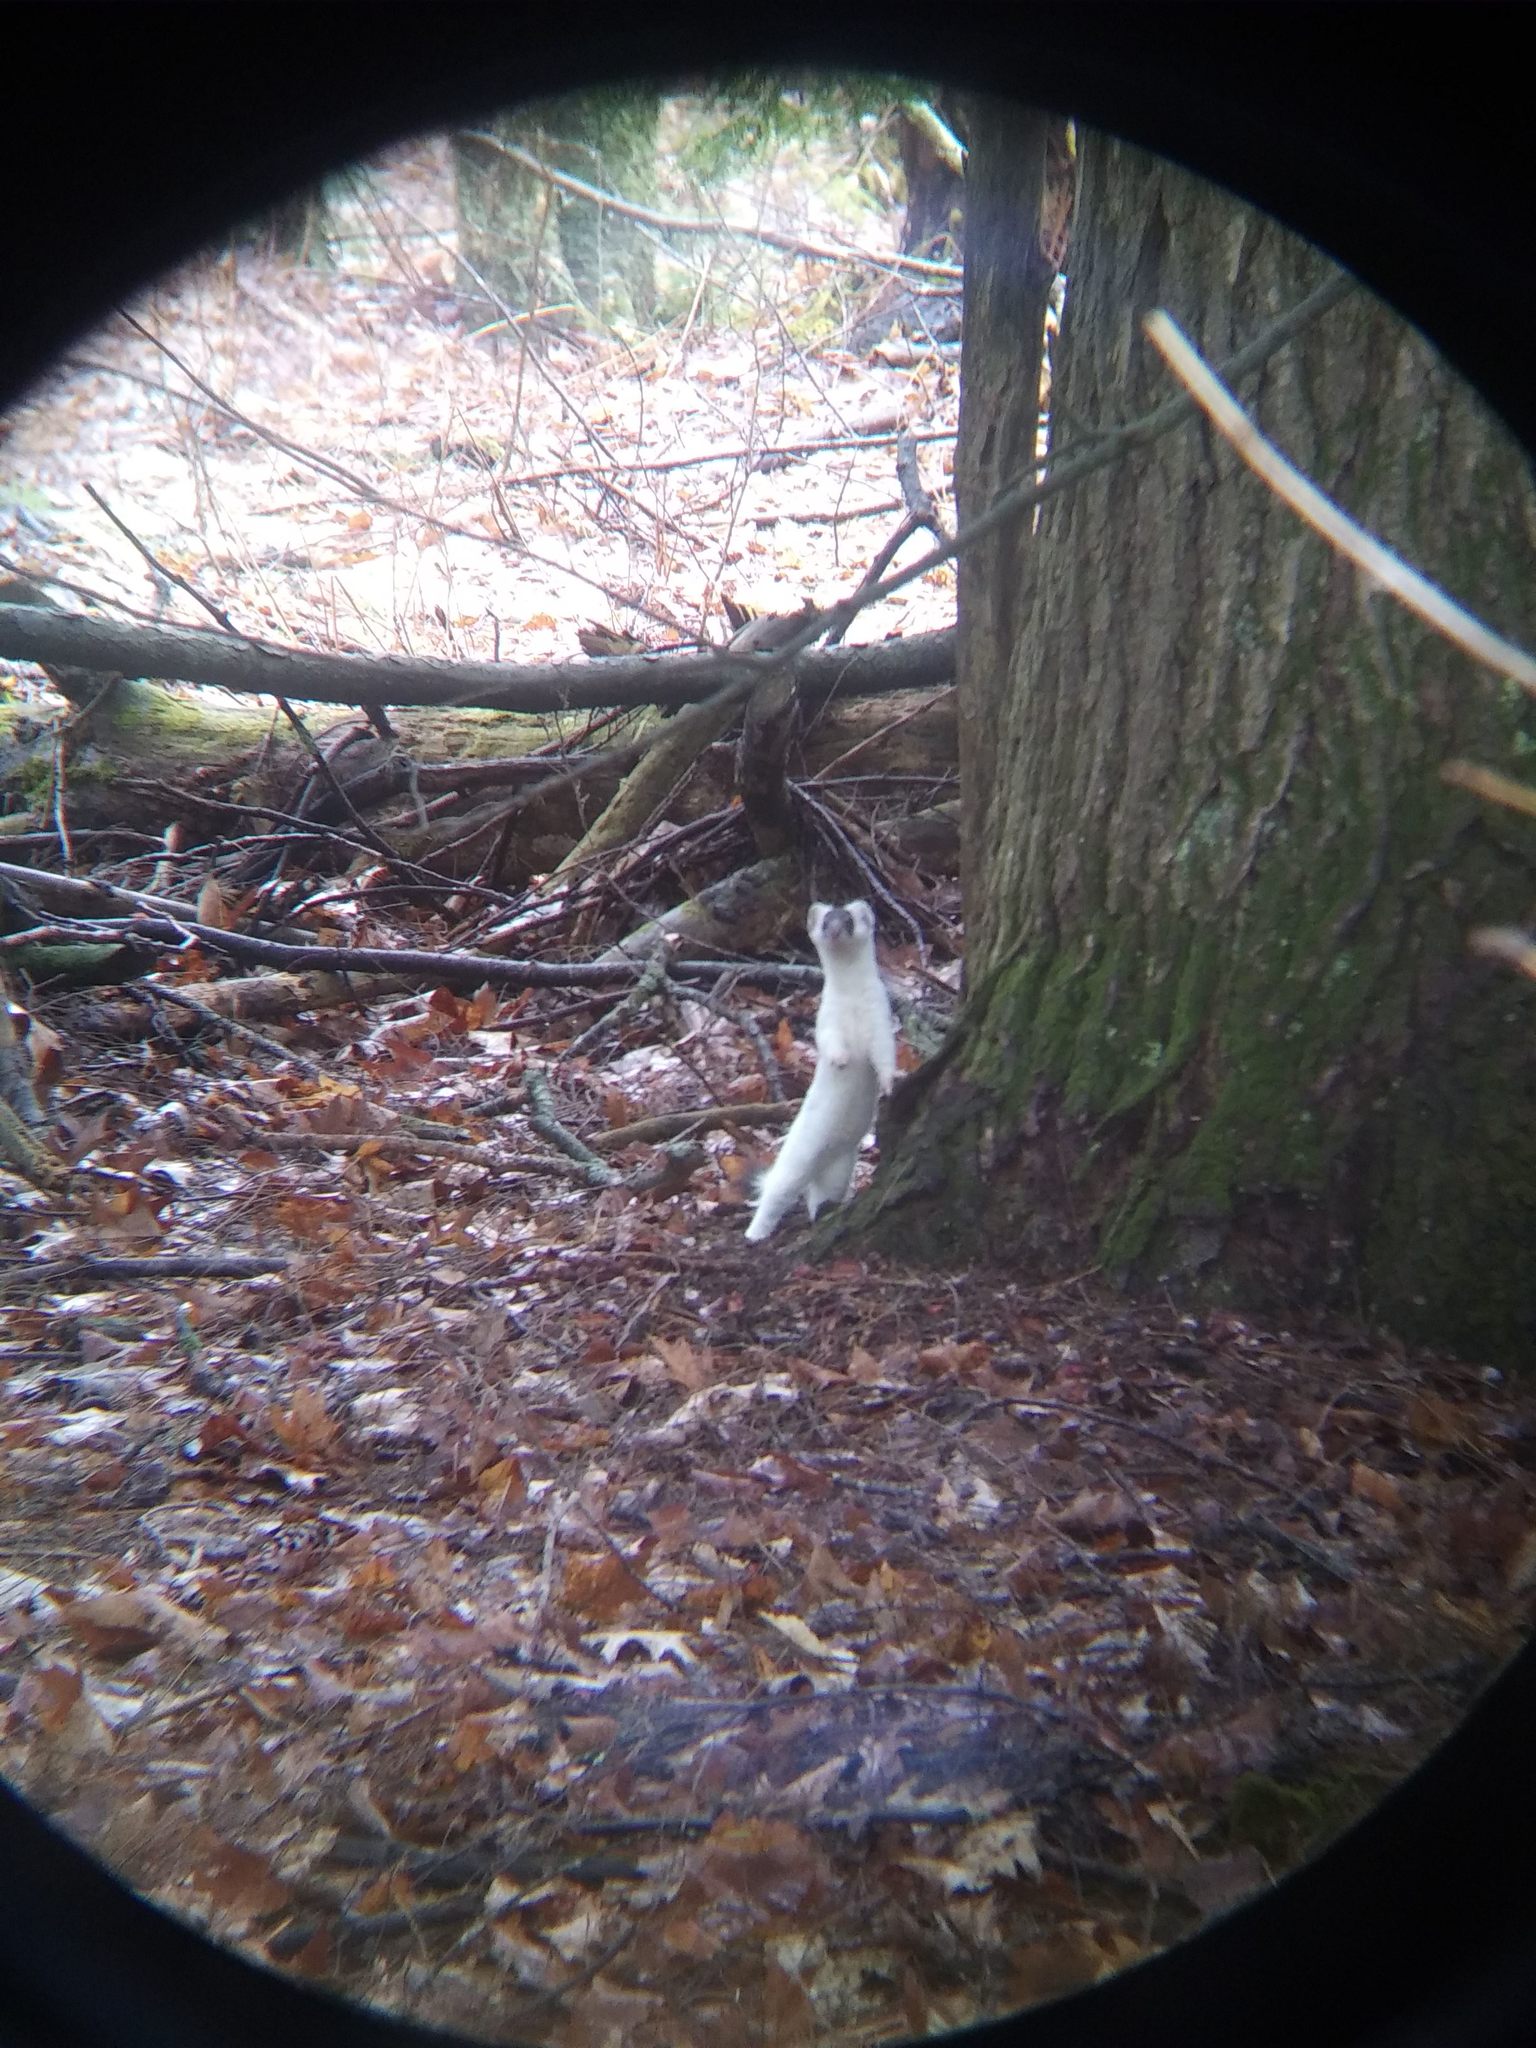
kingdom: Animalia
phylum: Chordata
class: Mammalia
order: Carnivora
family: Mustelidae
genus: Mustela
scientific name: Mustela erminea
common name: Stoat
